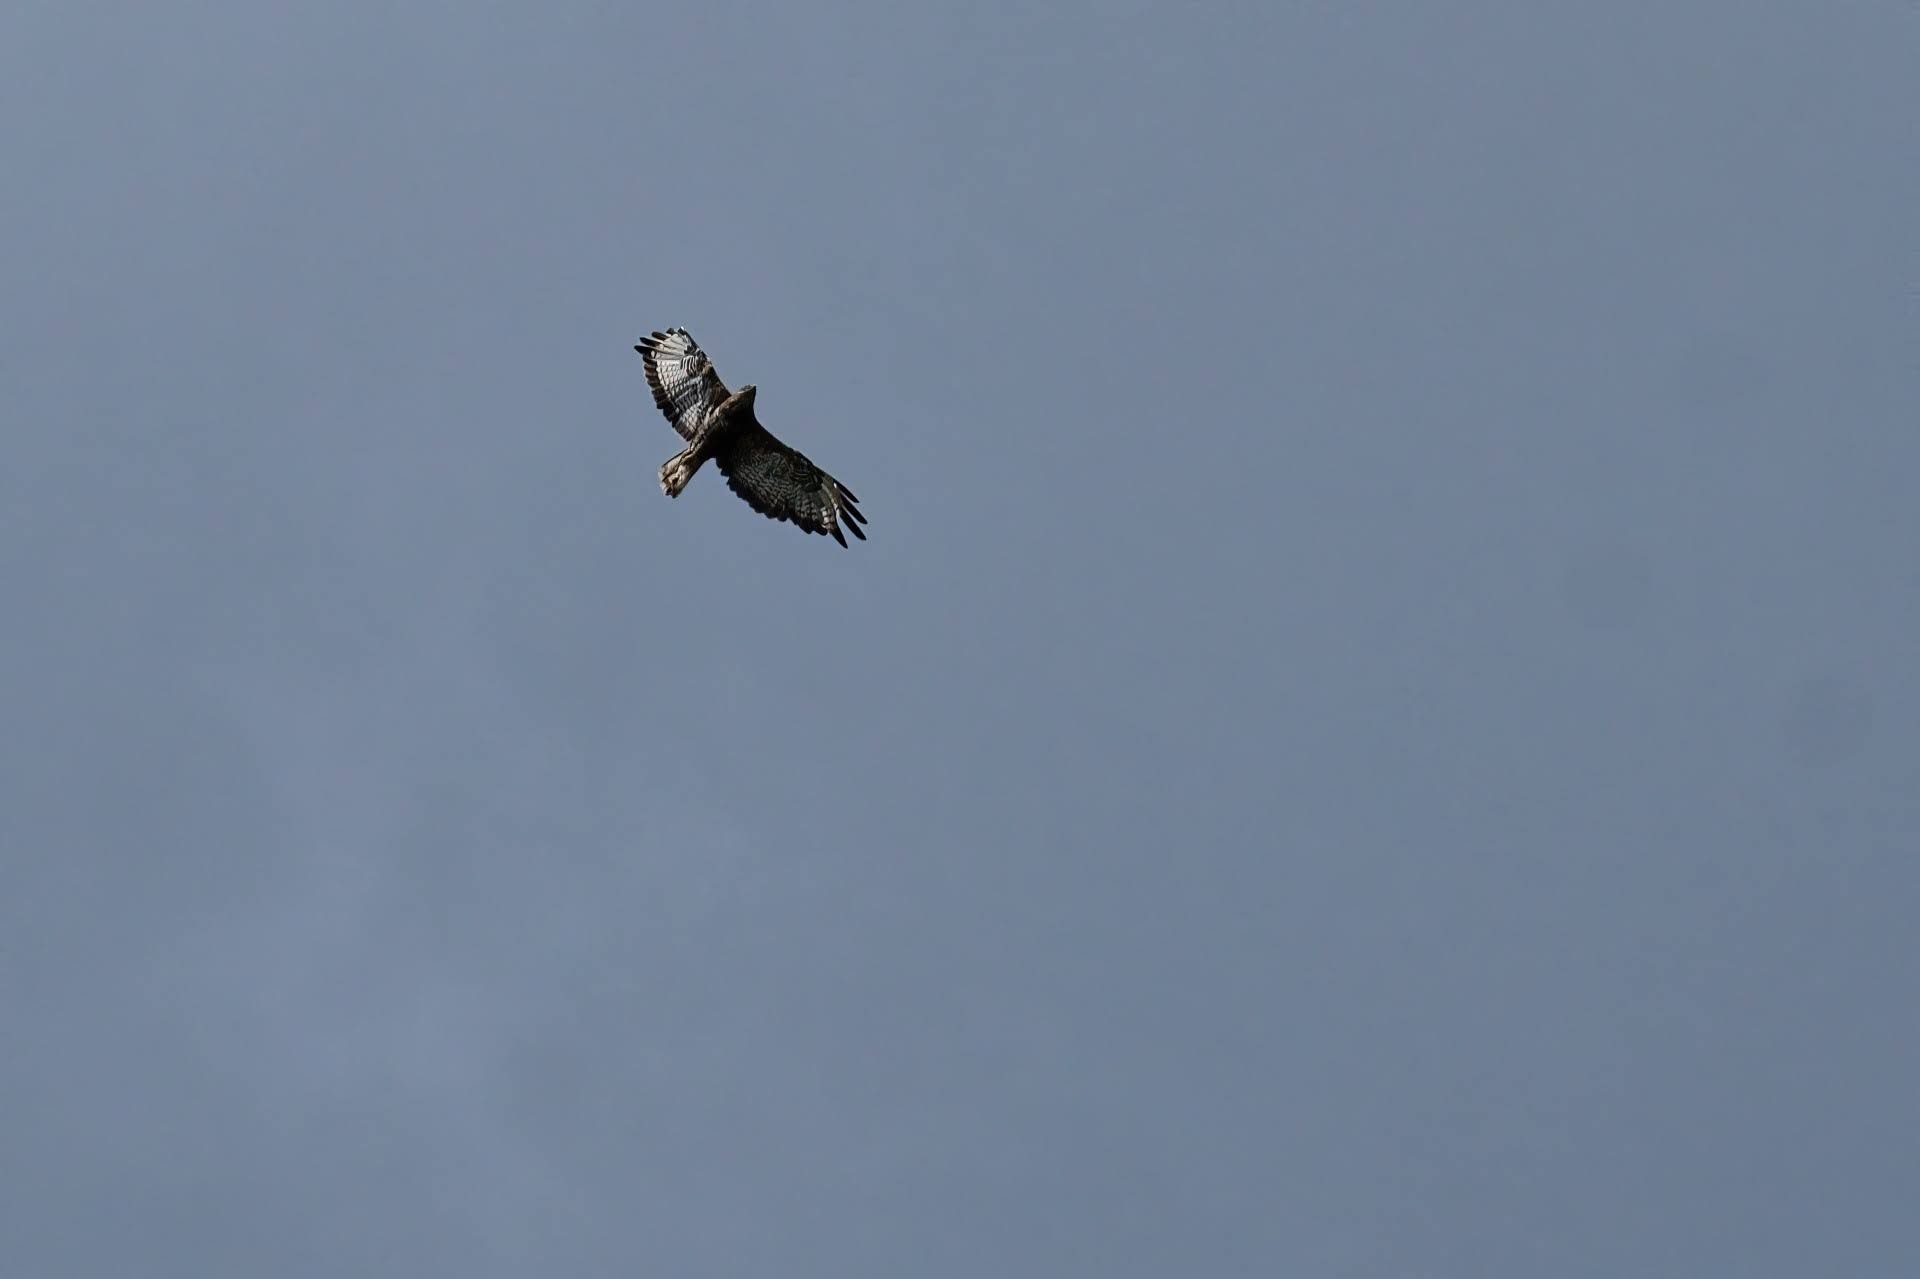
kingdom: Animalia
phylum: Chordata
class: Aves
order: Accipitriformes
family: Accipitridae
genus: Buteo
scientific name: Buteo buteo
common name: Common buzzard
